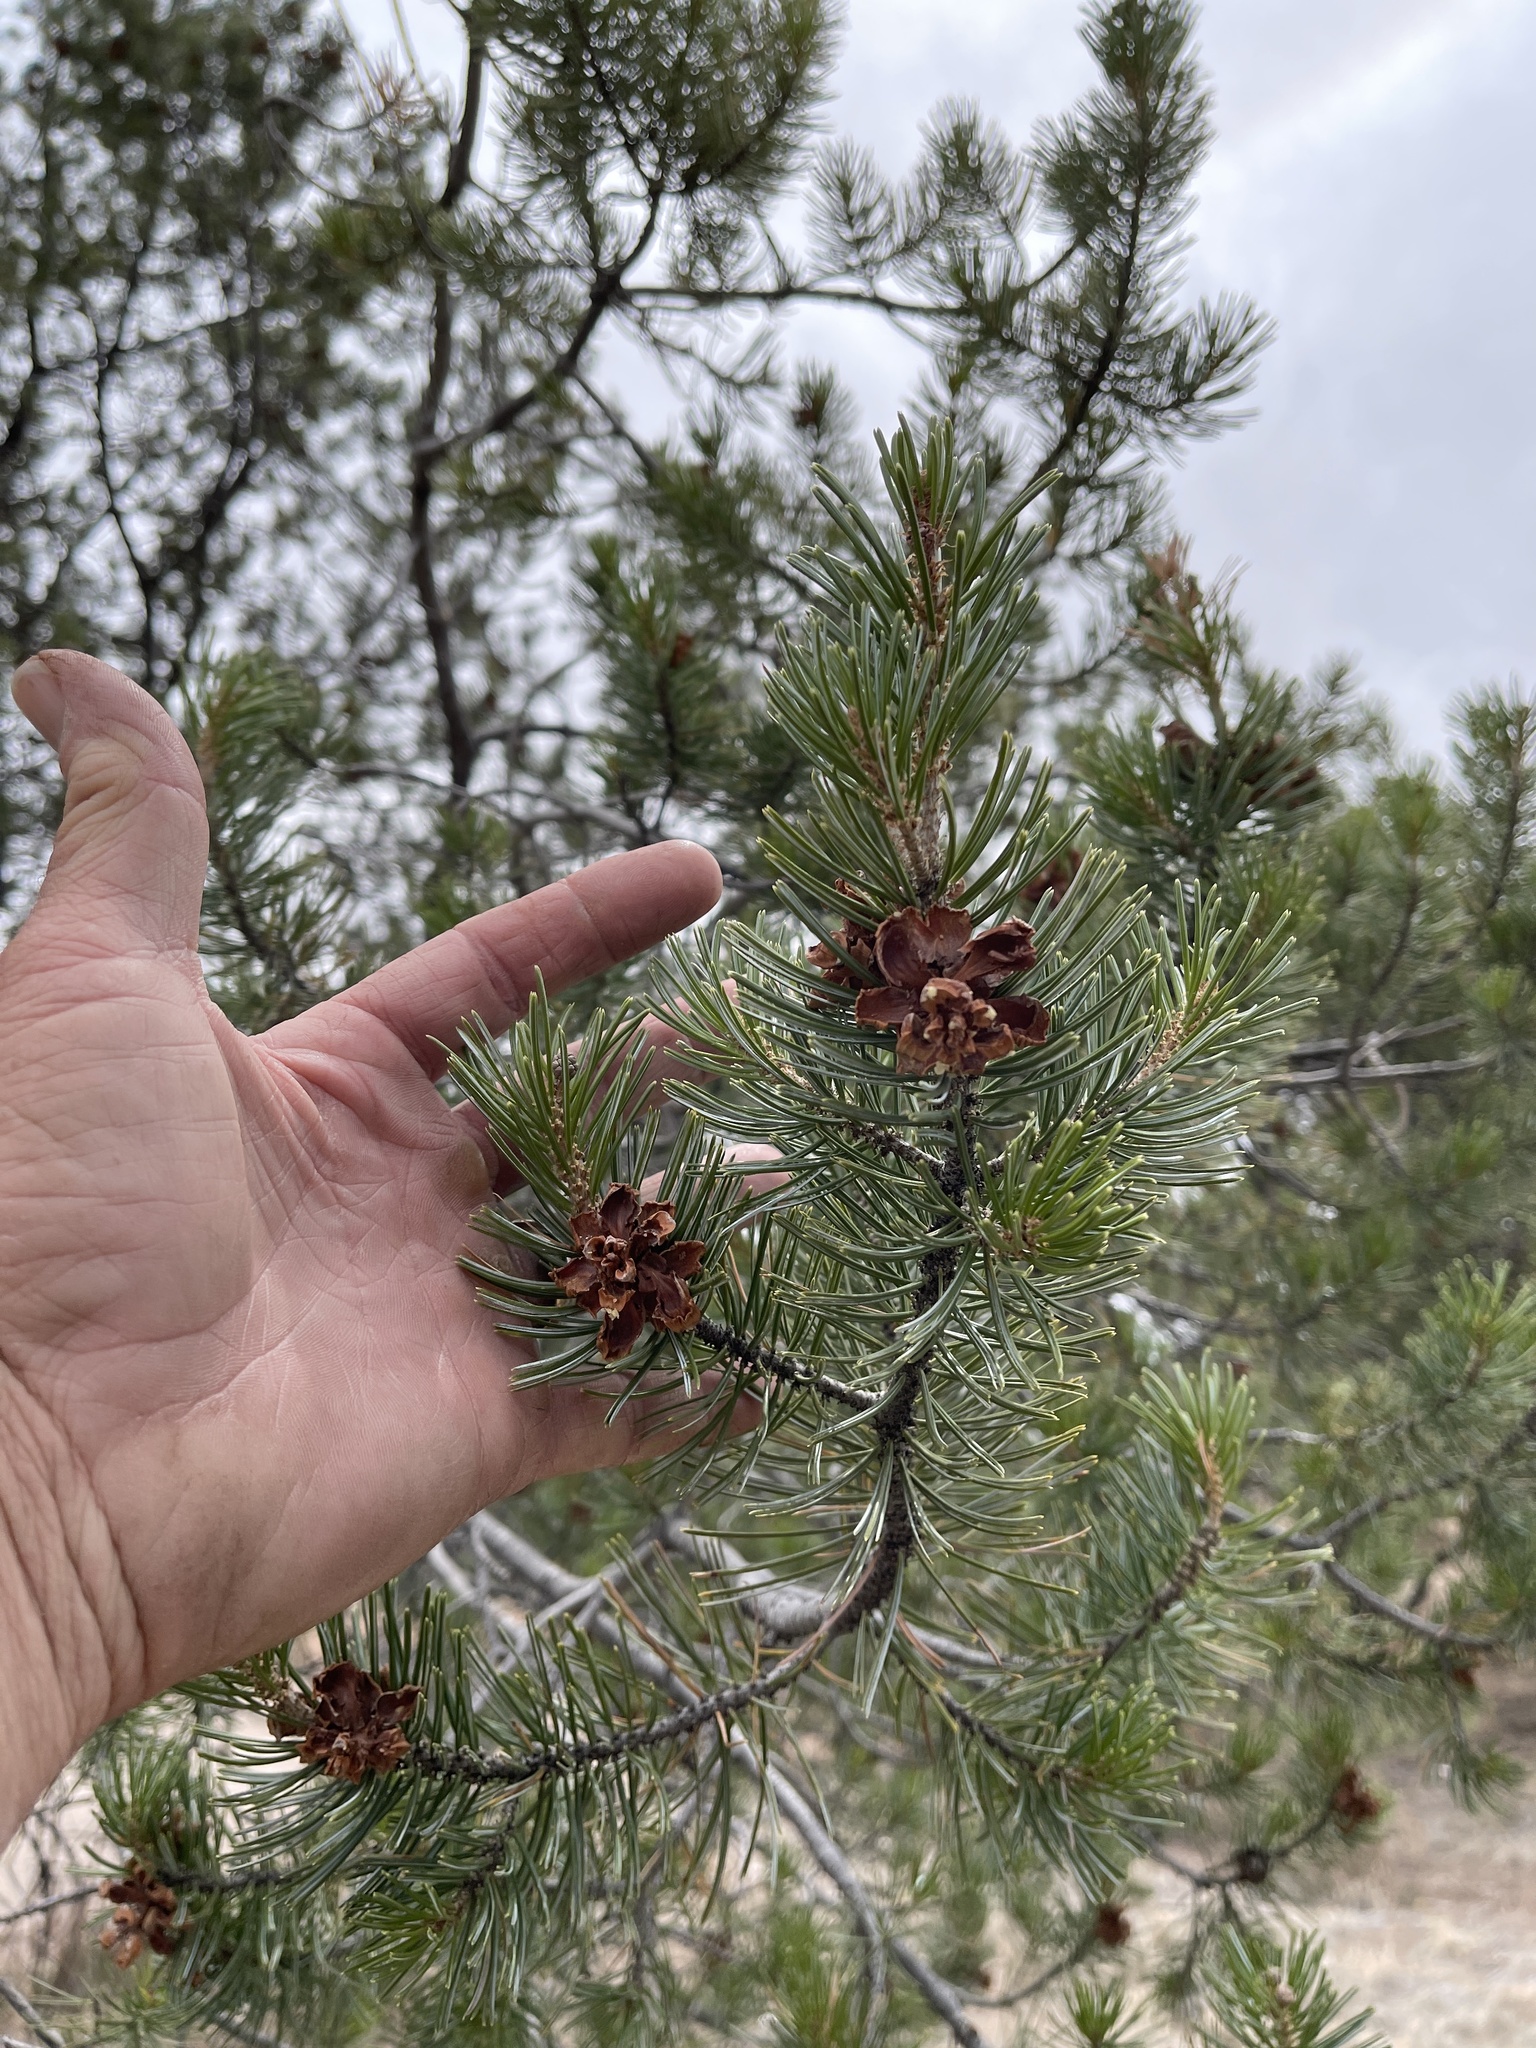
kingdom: Plantae
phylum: Tracheophyta
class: Pinopsida
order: Pinales
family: Pinaceae
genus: Pinus
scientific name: Pinus cembroides
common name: Mexican nut pine
